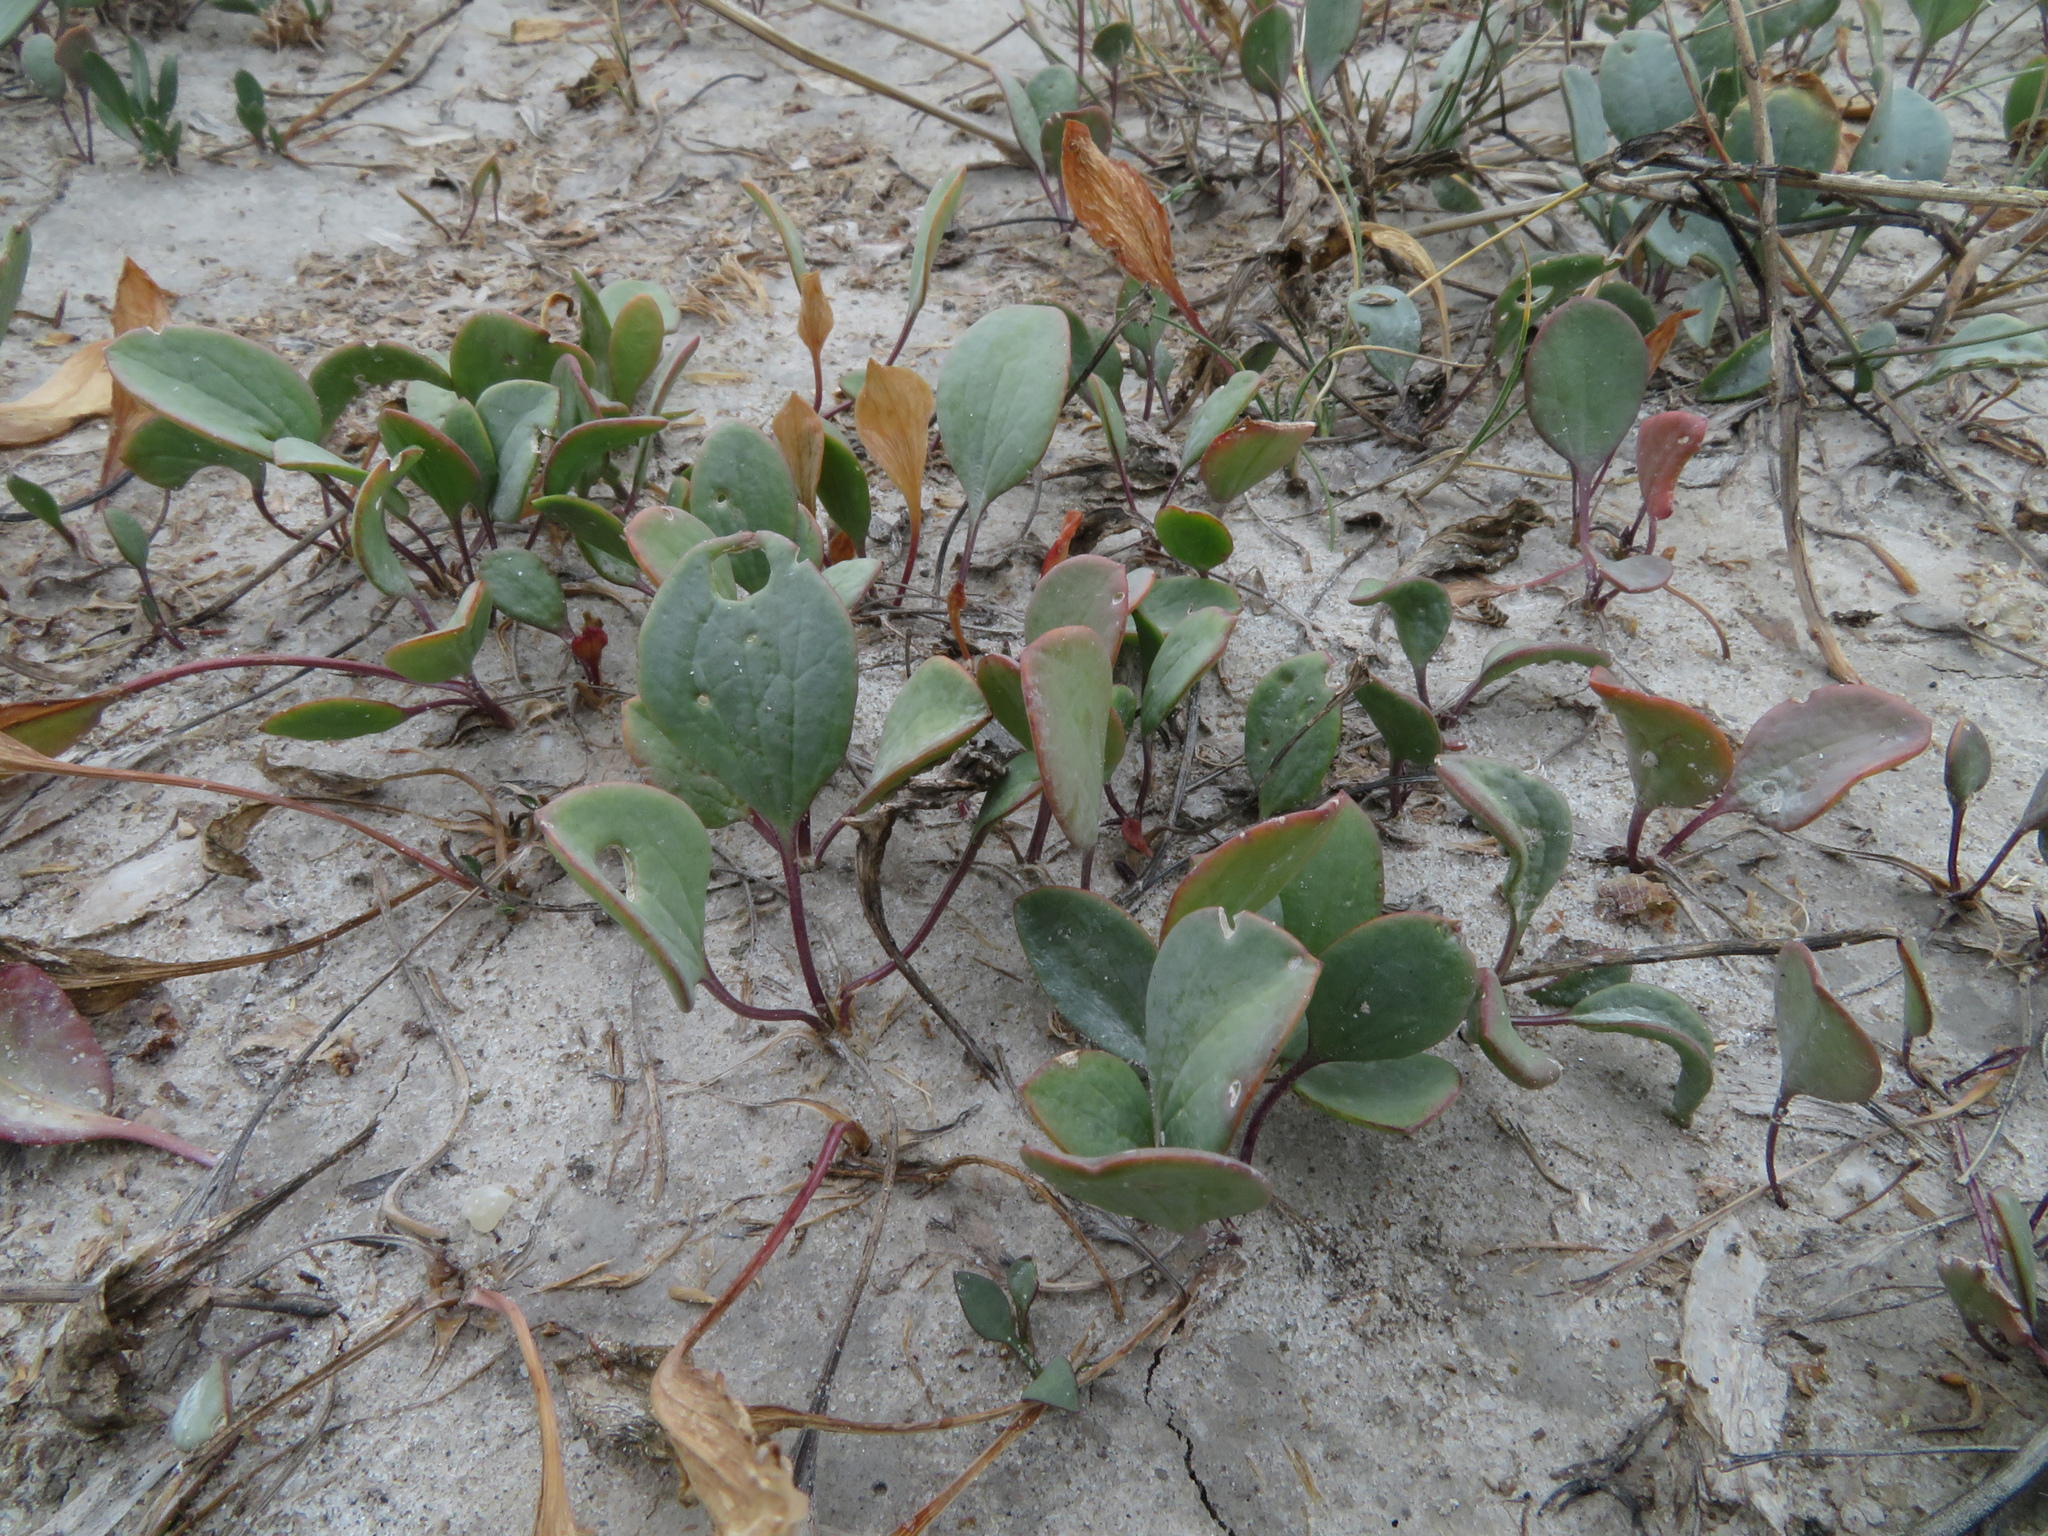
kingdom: Plantae
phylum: Tracheophyta
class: Magnoliopsida
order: Brassicales
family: Brassicaceae
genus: Lepidium
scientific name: Lepidium cartilagineum
